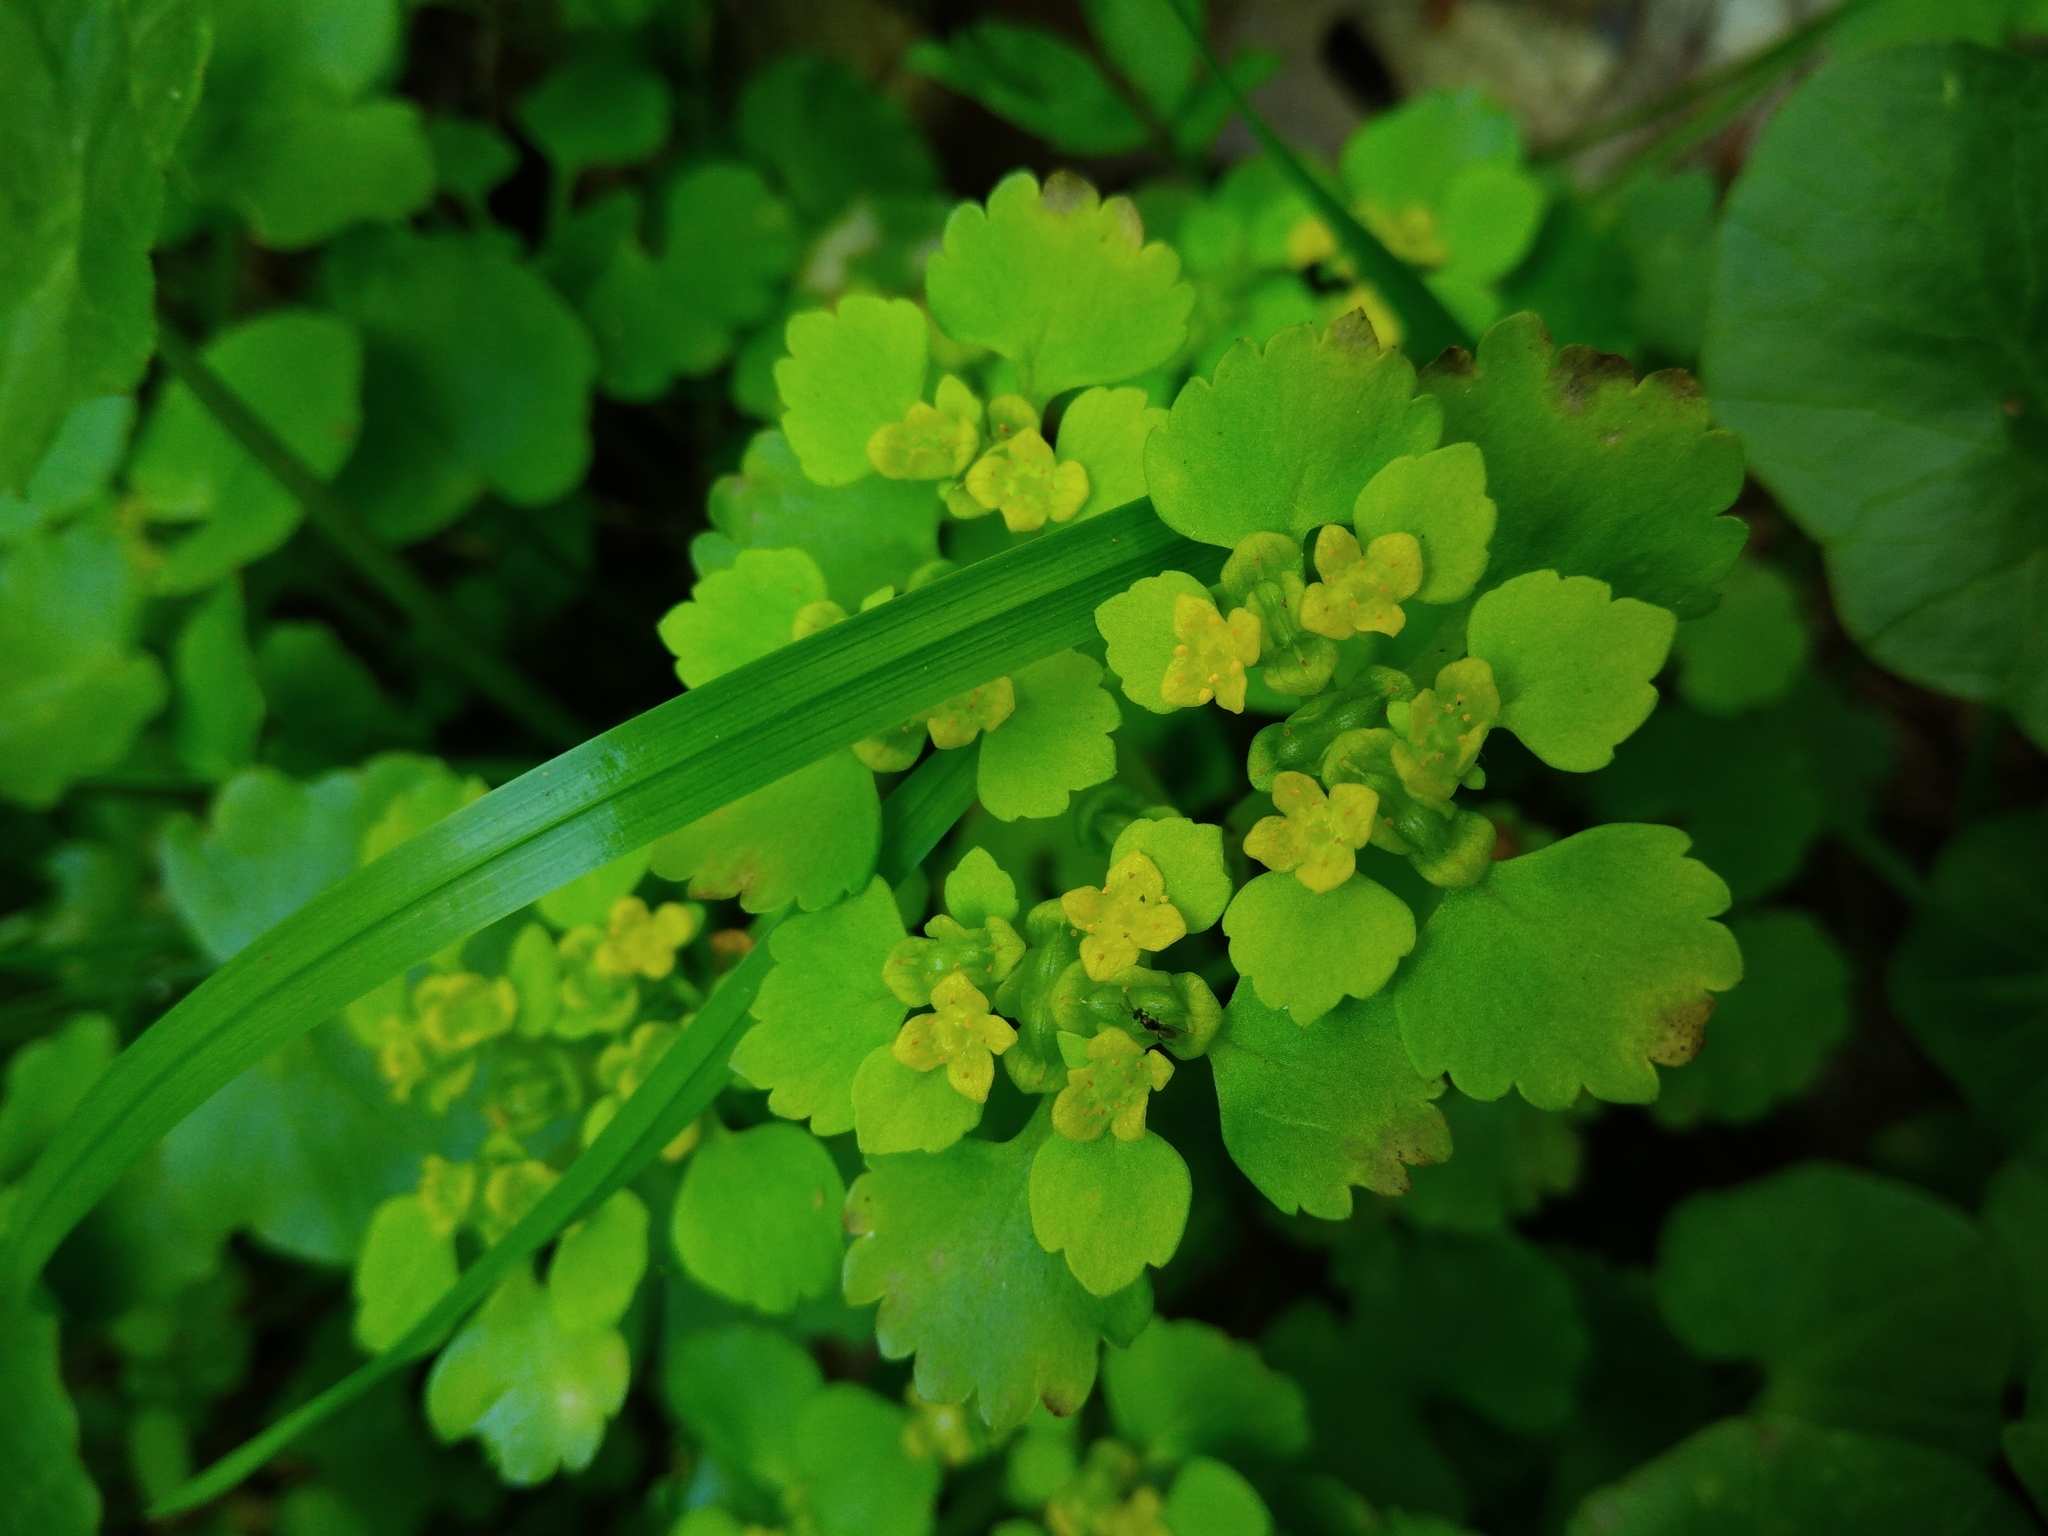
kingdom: Plantae
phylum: Tracheophyta
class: Magnoliopsida
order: Saxifragales
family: Saxifragaceae
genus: Chrysosplenium
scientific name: Chrysosplenium alternifolium
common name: Alternate-leaved golden-saxifrage
